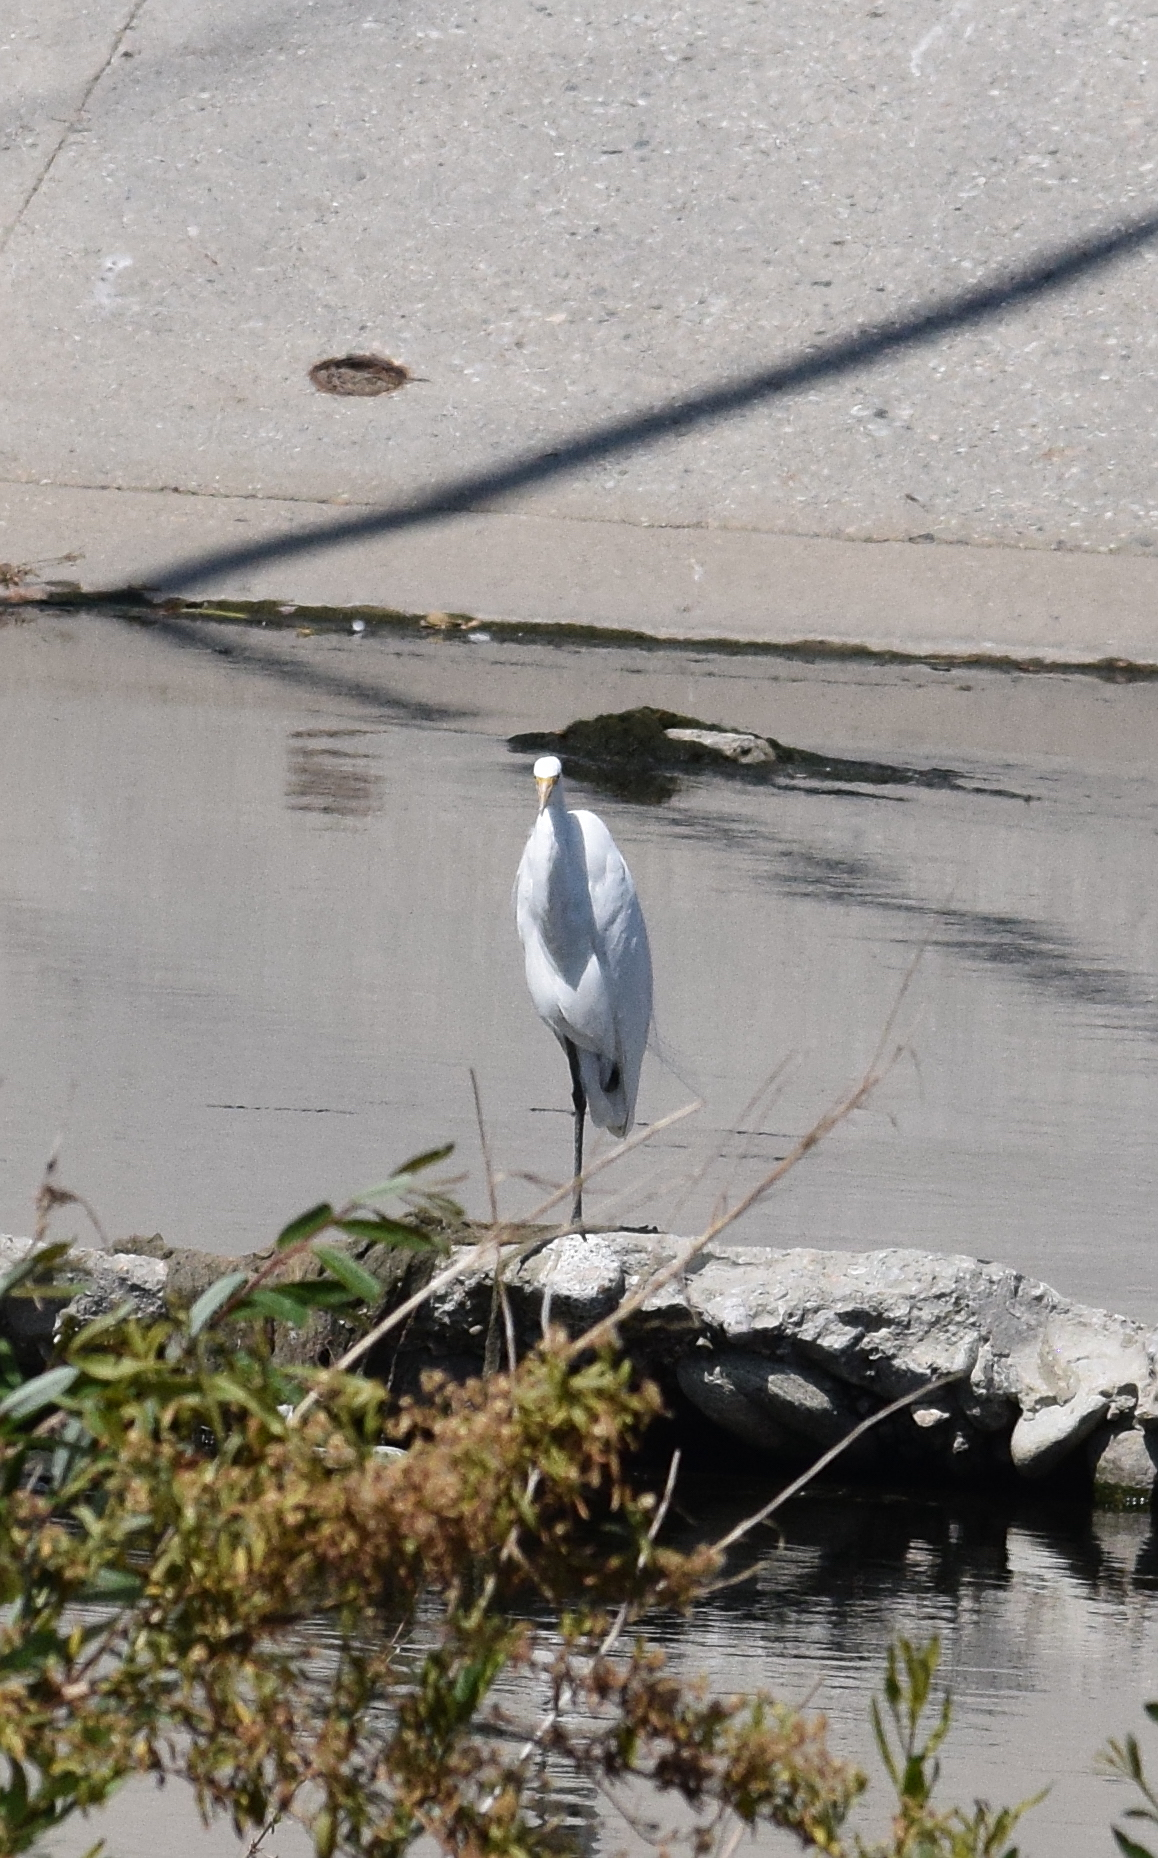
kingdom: Animalia
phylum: Chordata
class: Aves
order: Pelecaniformes
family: Ardeidae
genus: Ardea
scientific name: Ardea alba
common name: Great egret
